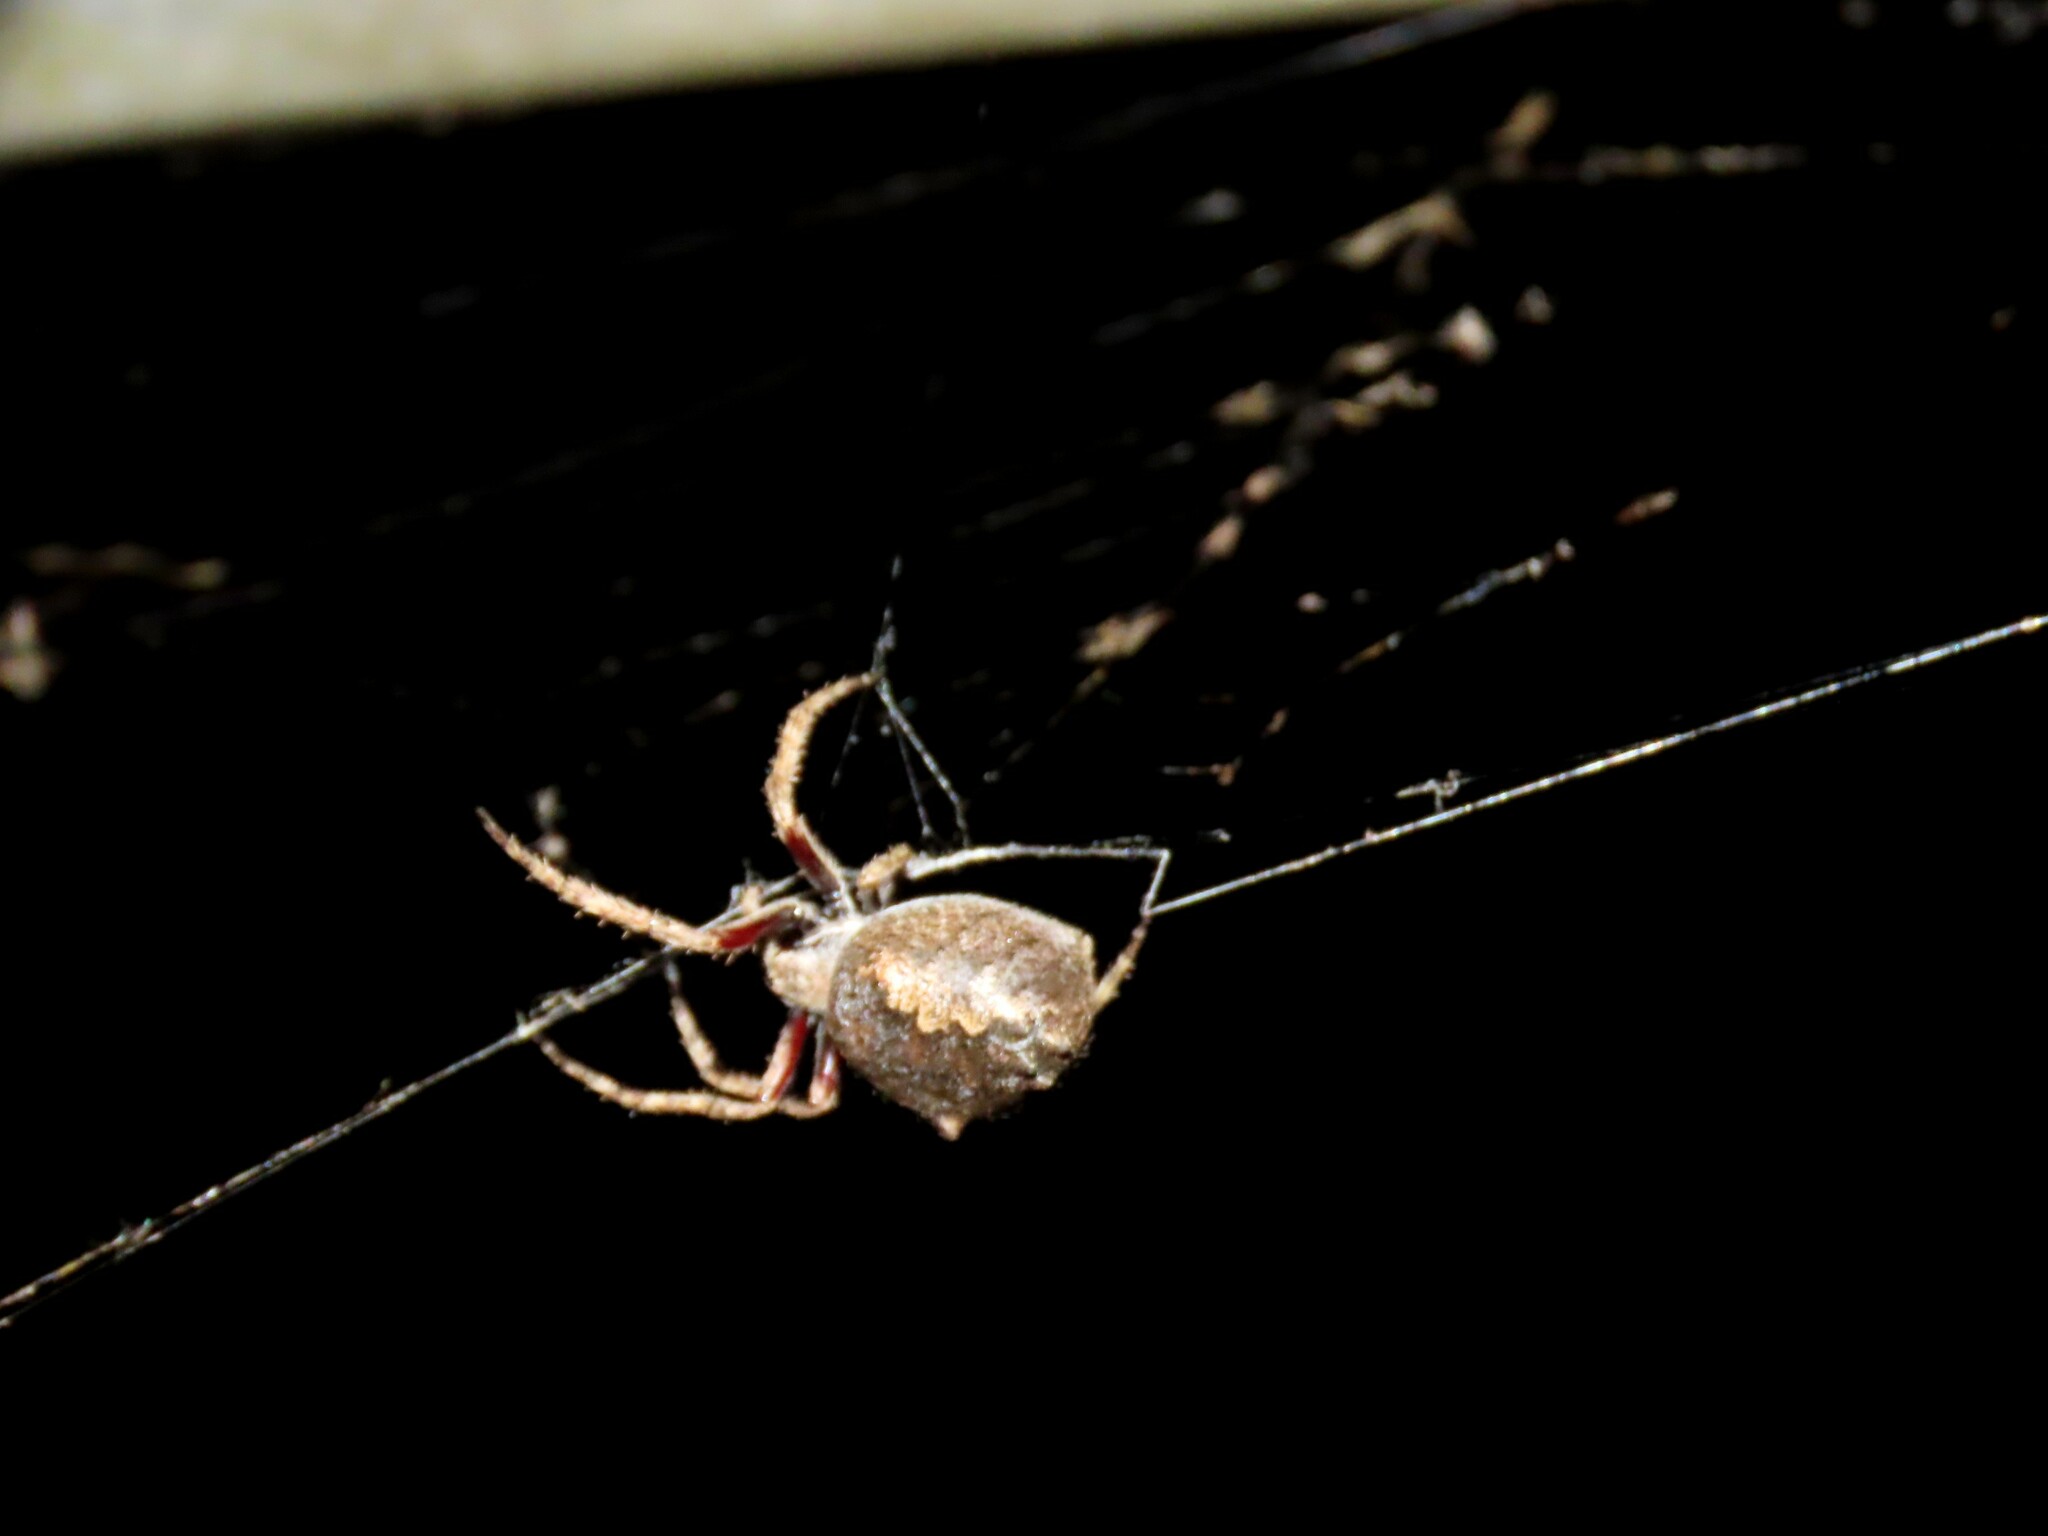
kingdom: Animalia
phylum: Arthropoda
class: Arachnida
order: Araneae
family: Araneidae
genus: Eriophora
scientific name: Eriophora pustulosa
